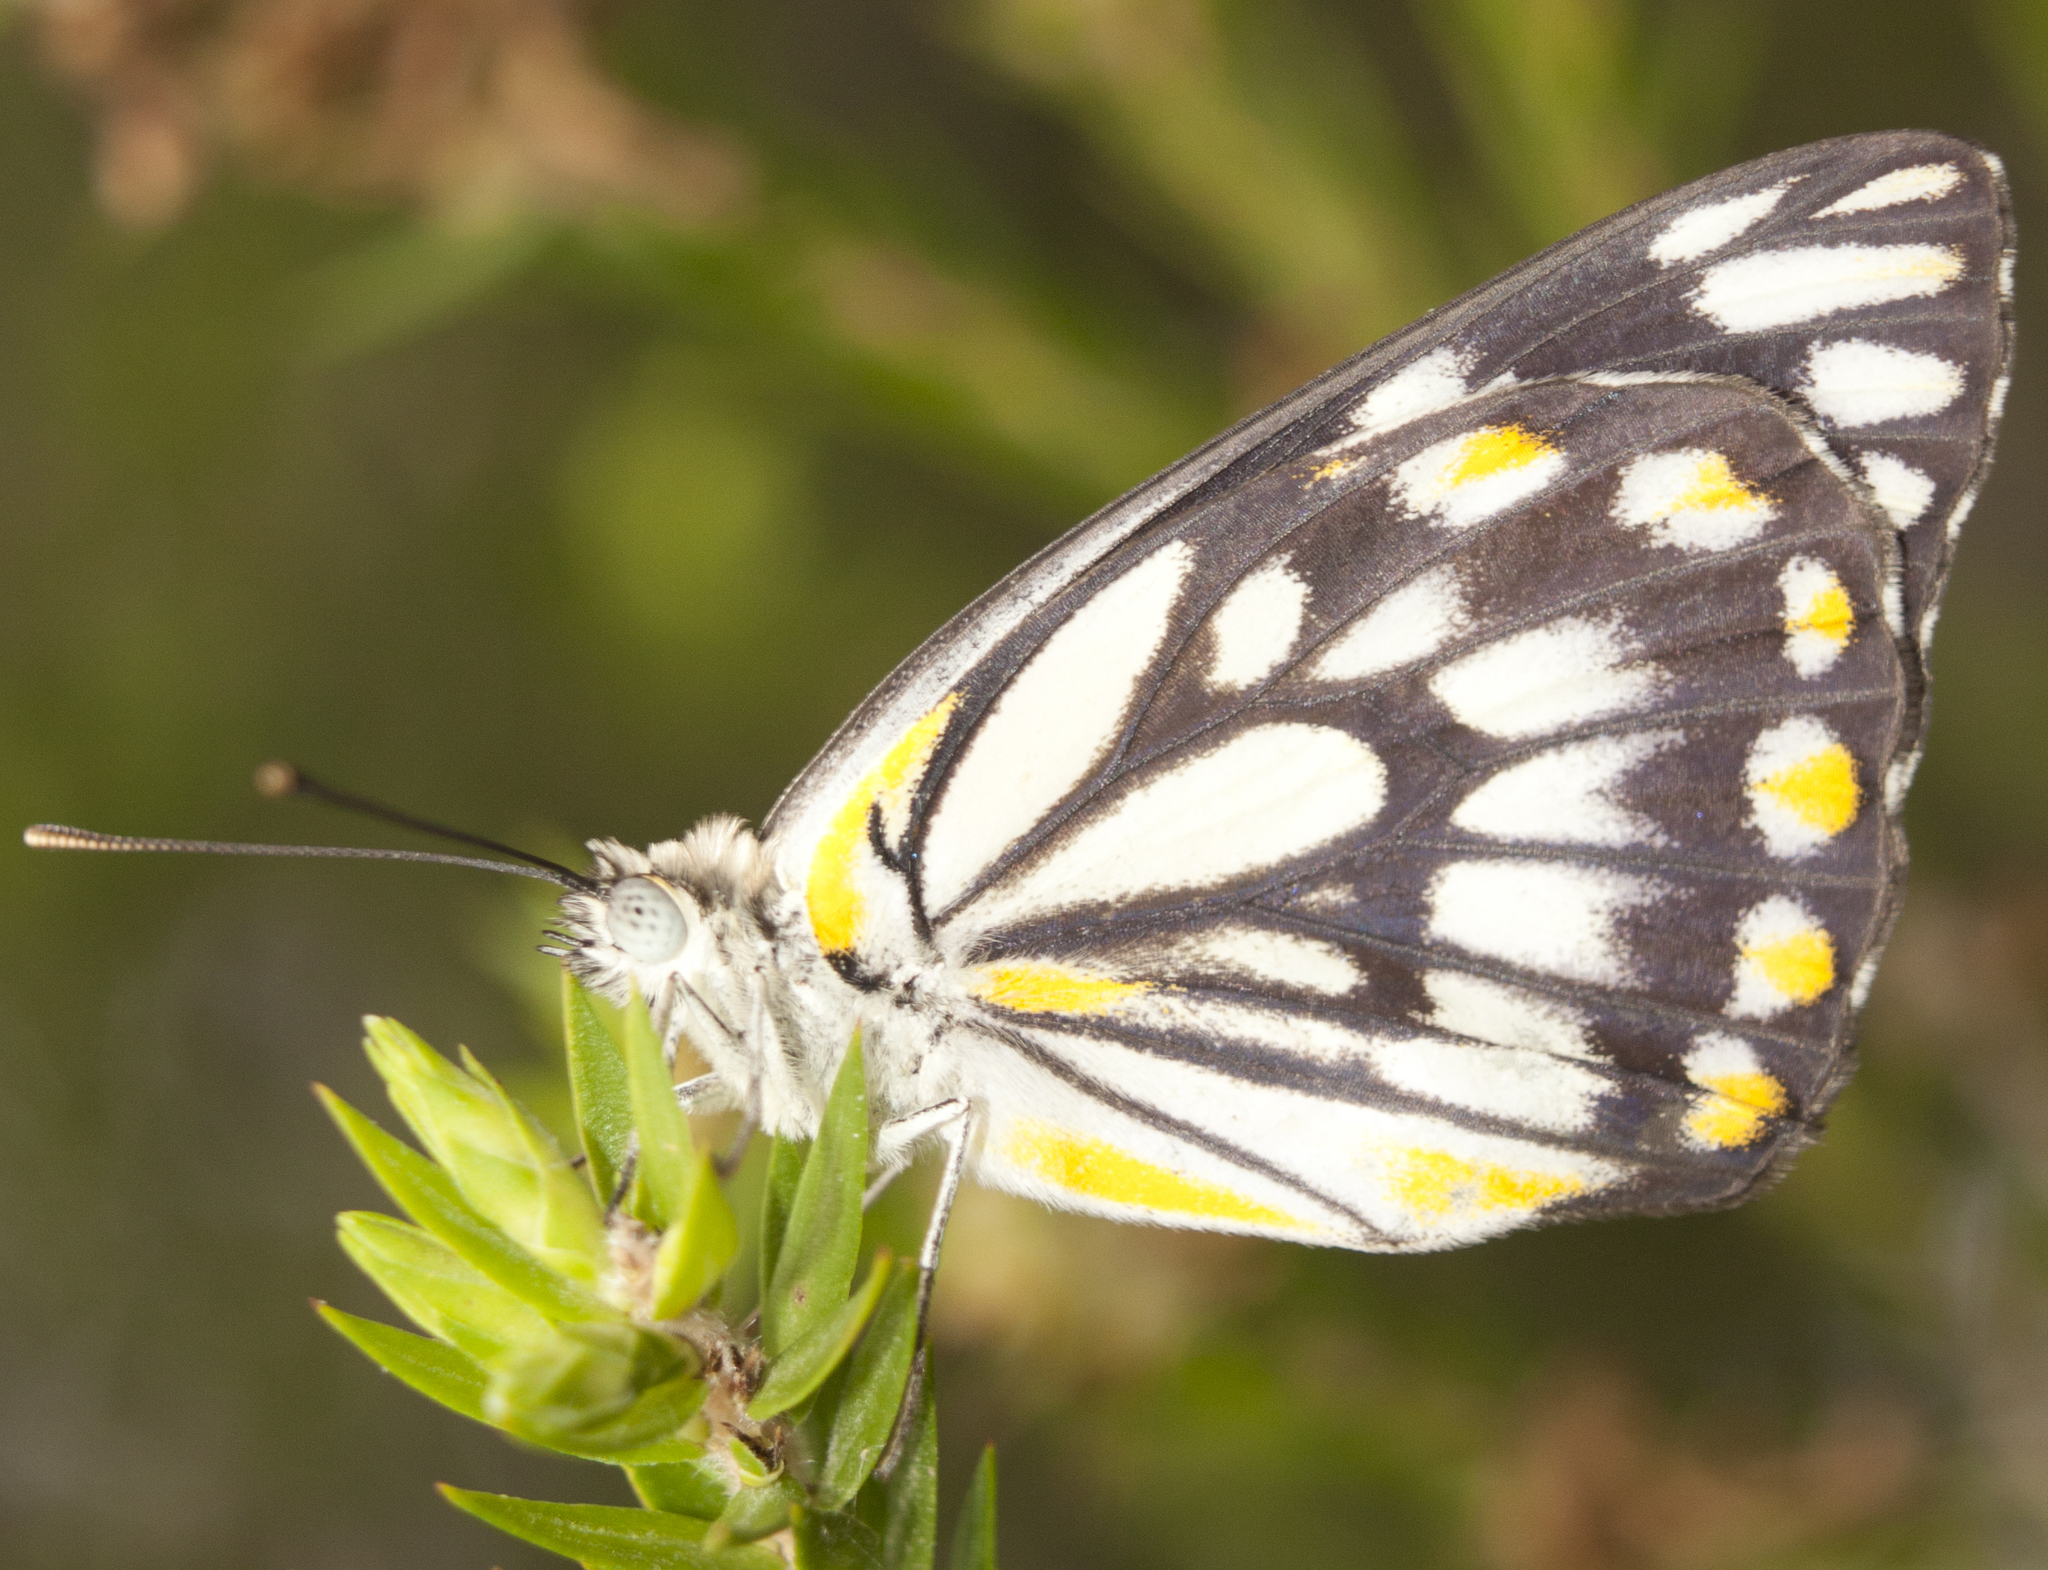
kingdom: Animalia
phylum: Arthropoda
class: Insecta
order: Lepidoptera
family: Pieridae
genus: Belenois
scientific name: Belenois java
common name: Caper white
